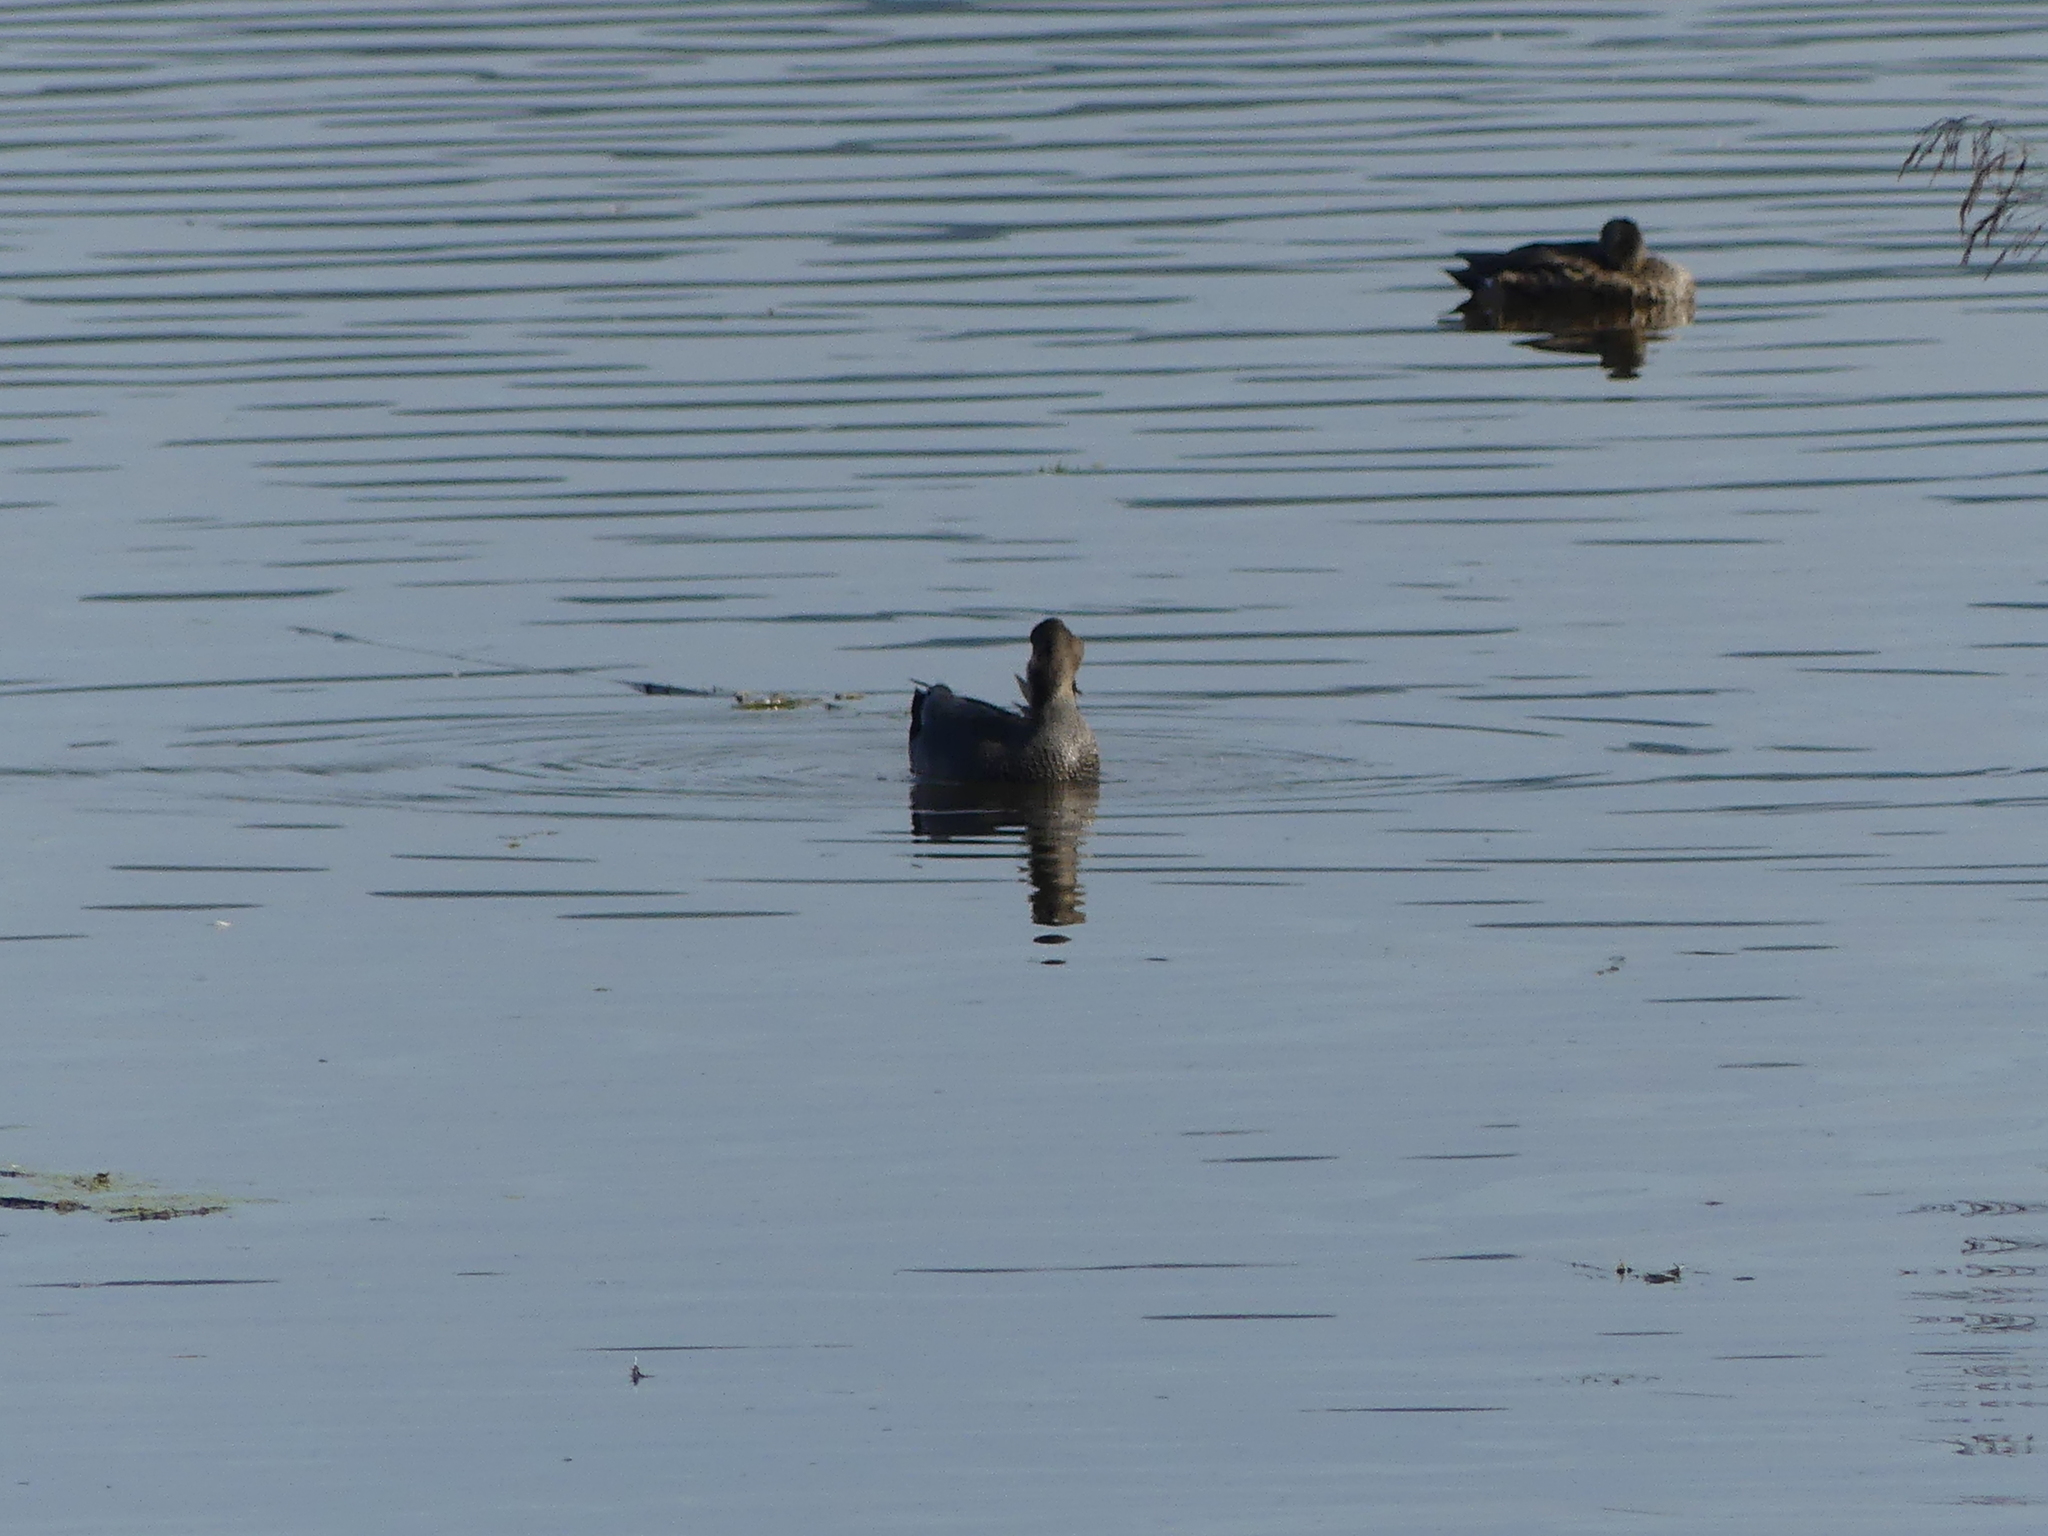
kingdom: Animalia
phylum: Chordata
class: Aves
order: Anseriformes
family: Anatidae
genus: Mareca
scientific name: Mareca strepera
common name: Gadwall
